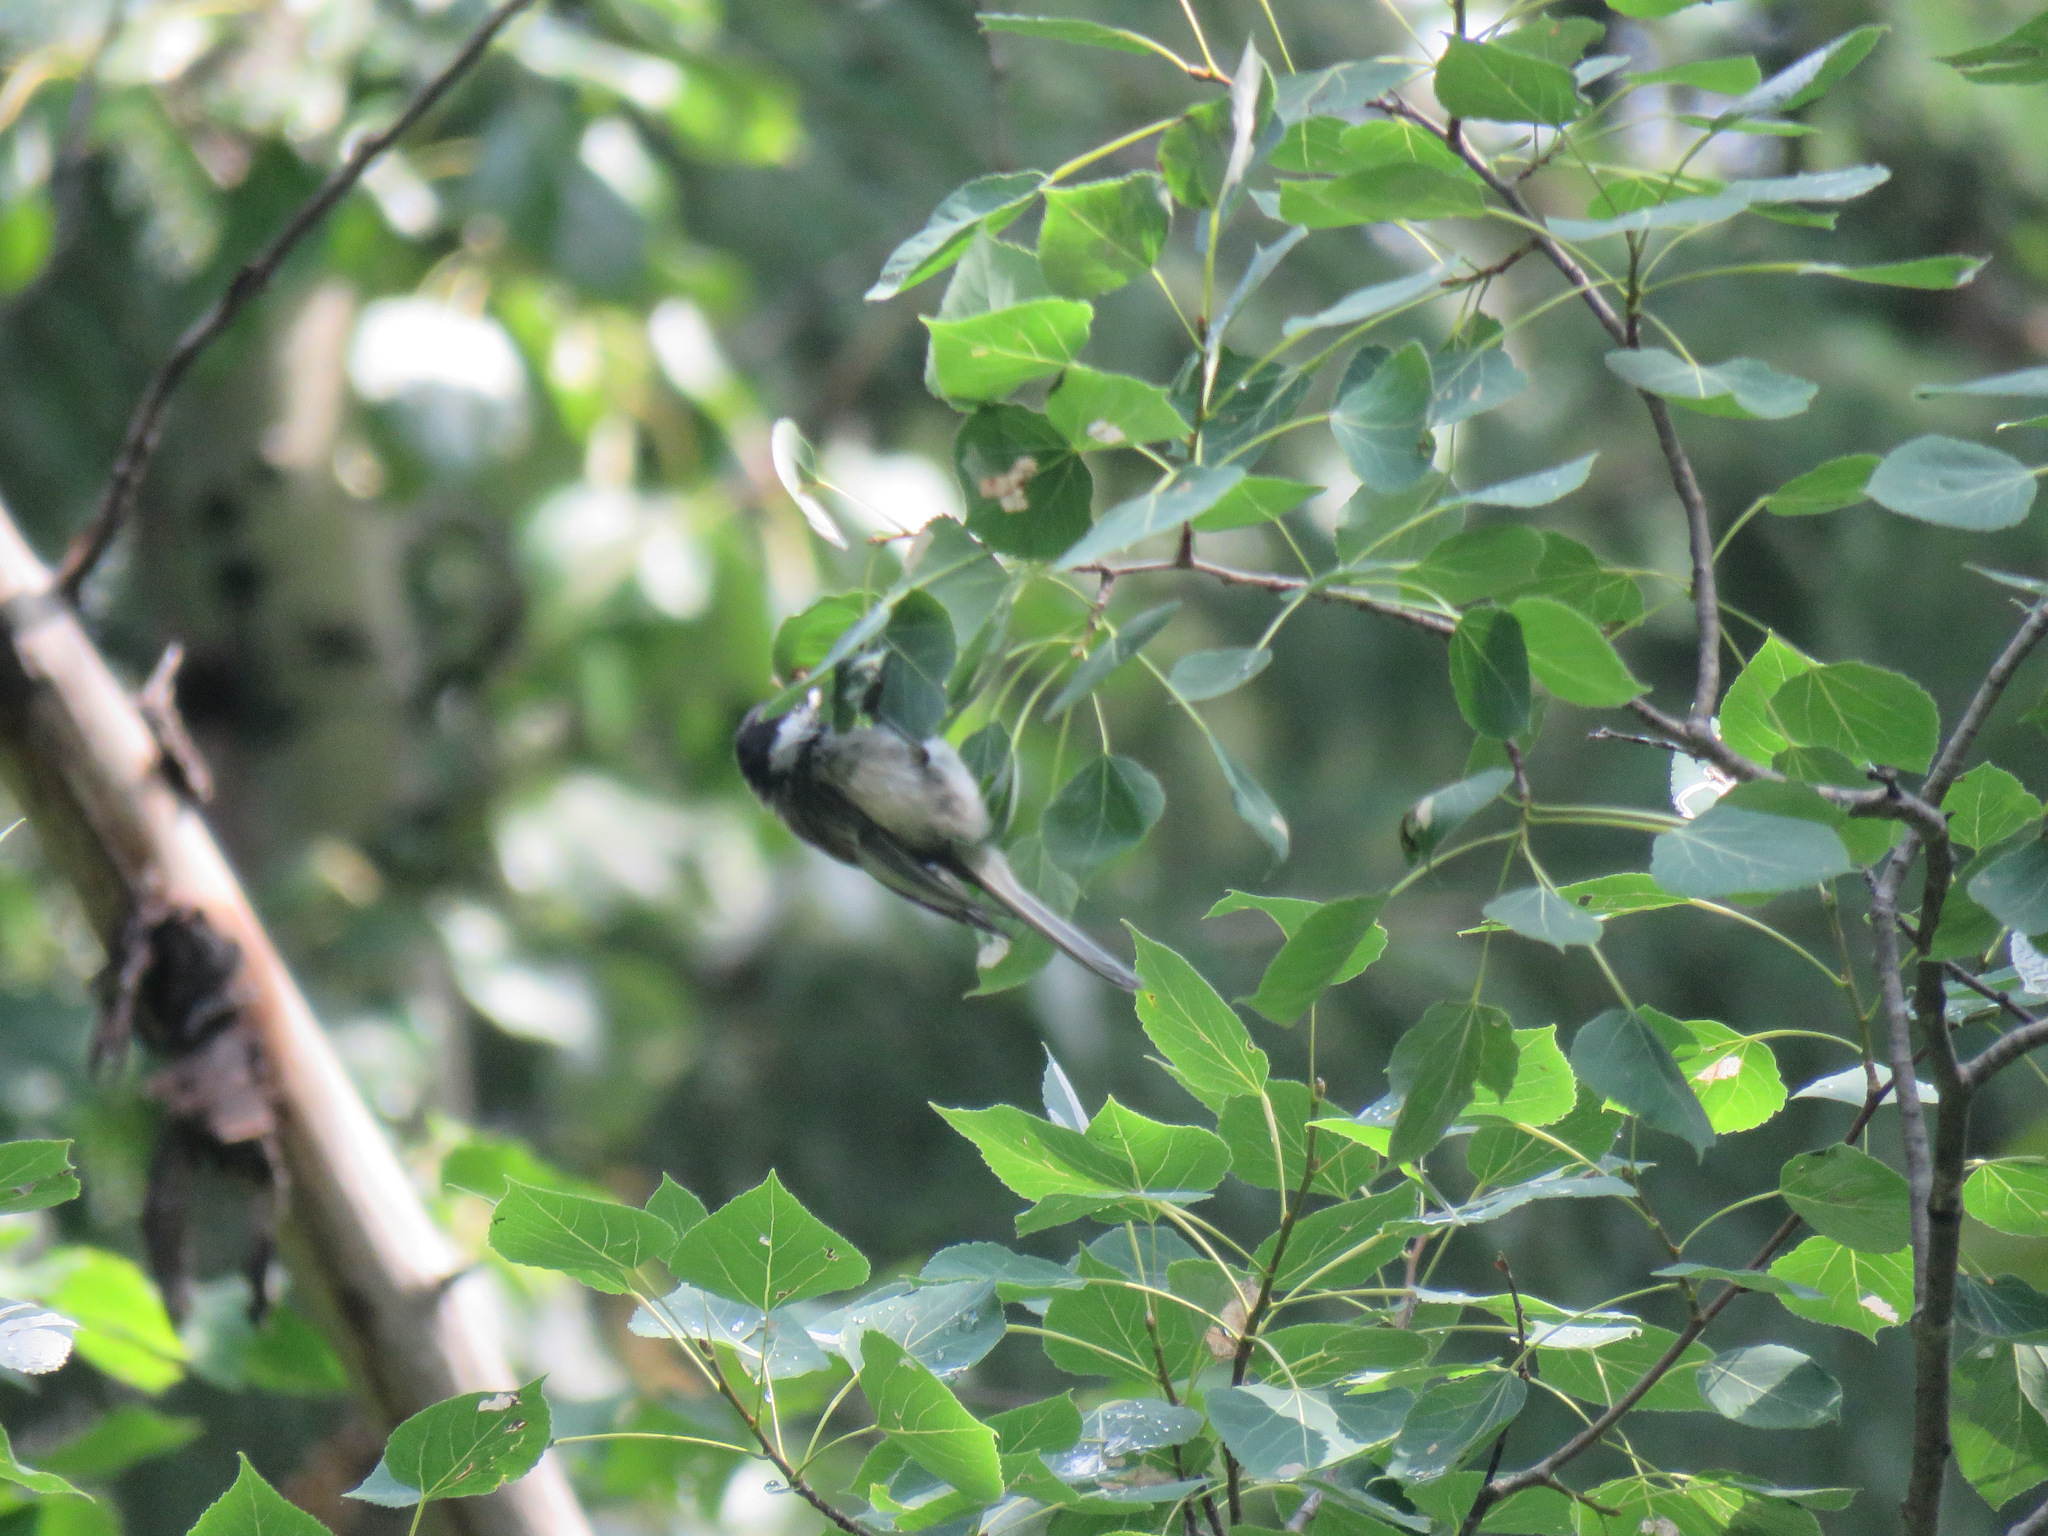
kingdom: Animalia
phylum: Chordata
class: Aves
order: Passeriformes
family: Paridae
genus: Poecile
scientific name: Poecile atricapillus
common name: Black-capped chickadee
